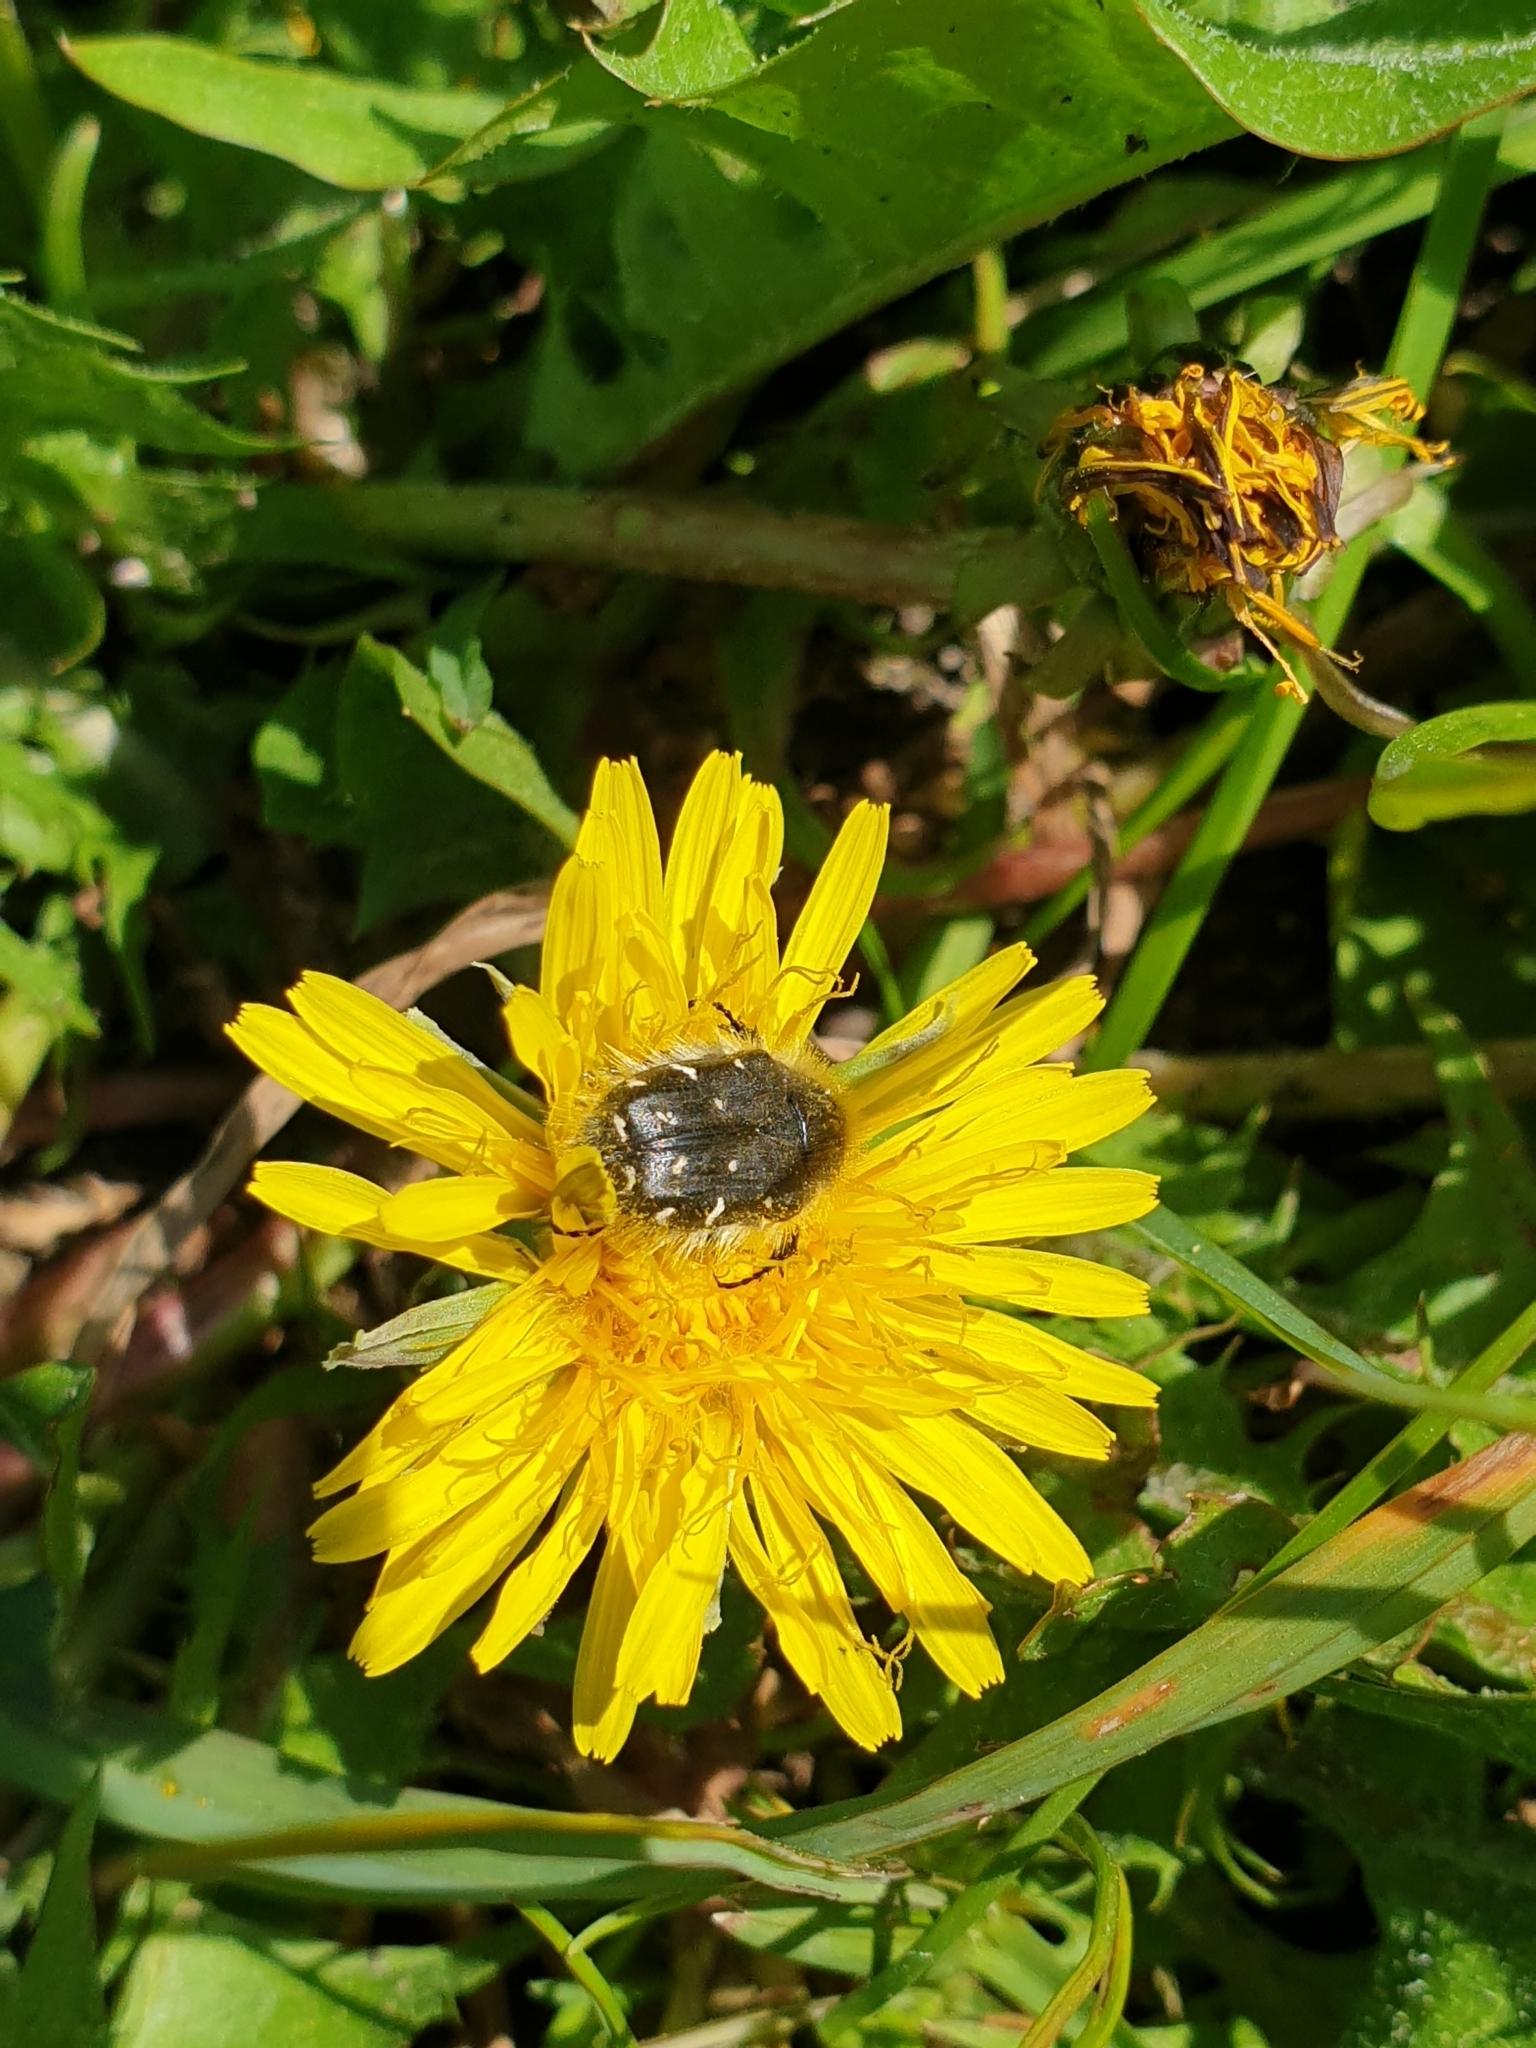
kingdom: Animalia
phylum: Arthropoda
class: Insecta
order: Coleoptera
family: Scarabaeidae
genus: Tropinota
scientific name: Tropinota hirta
